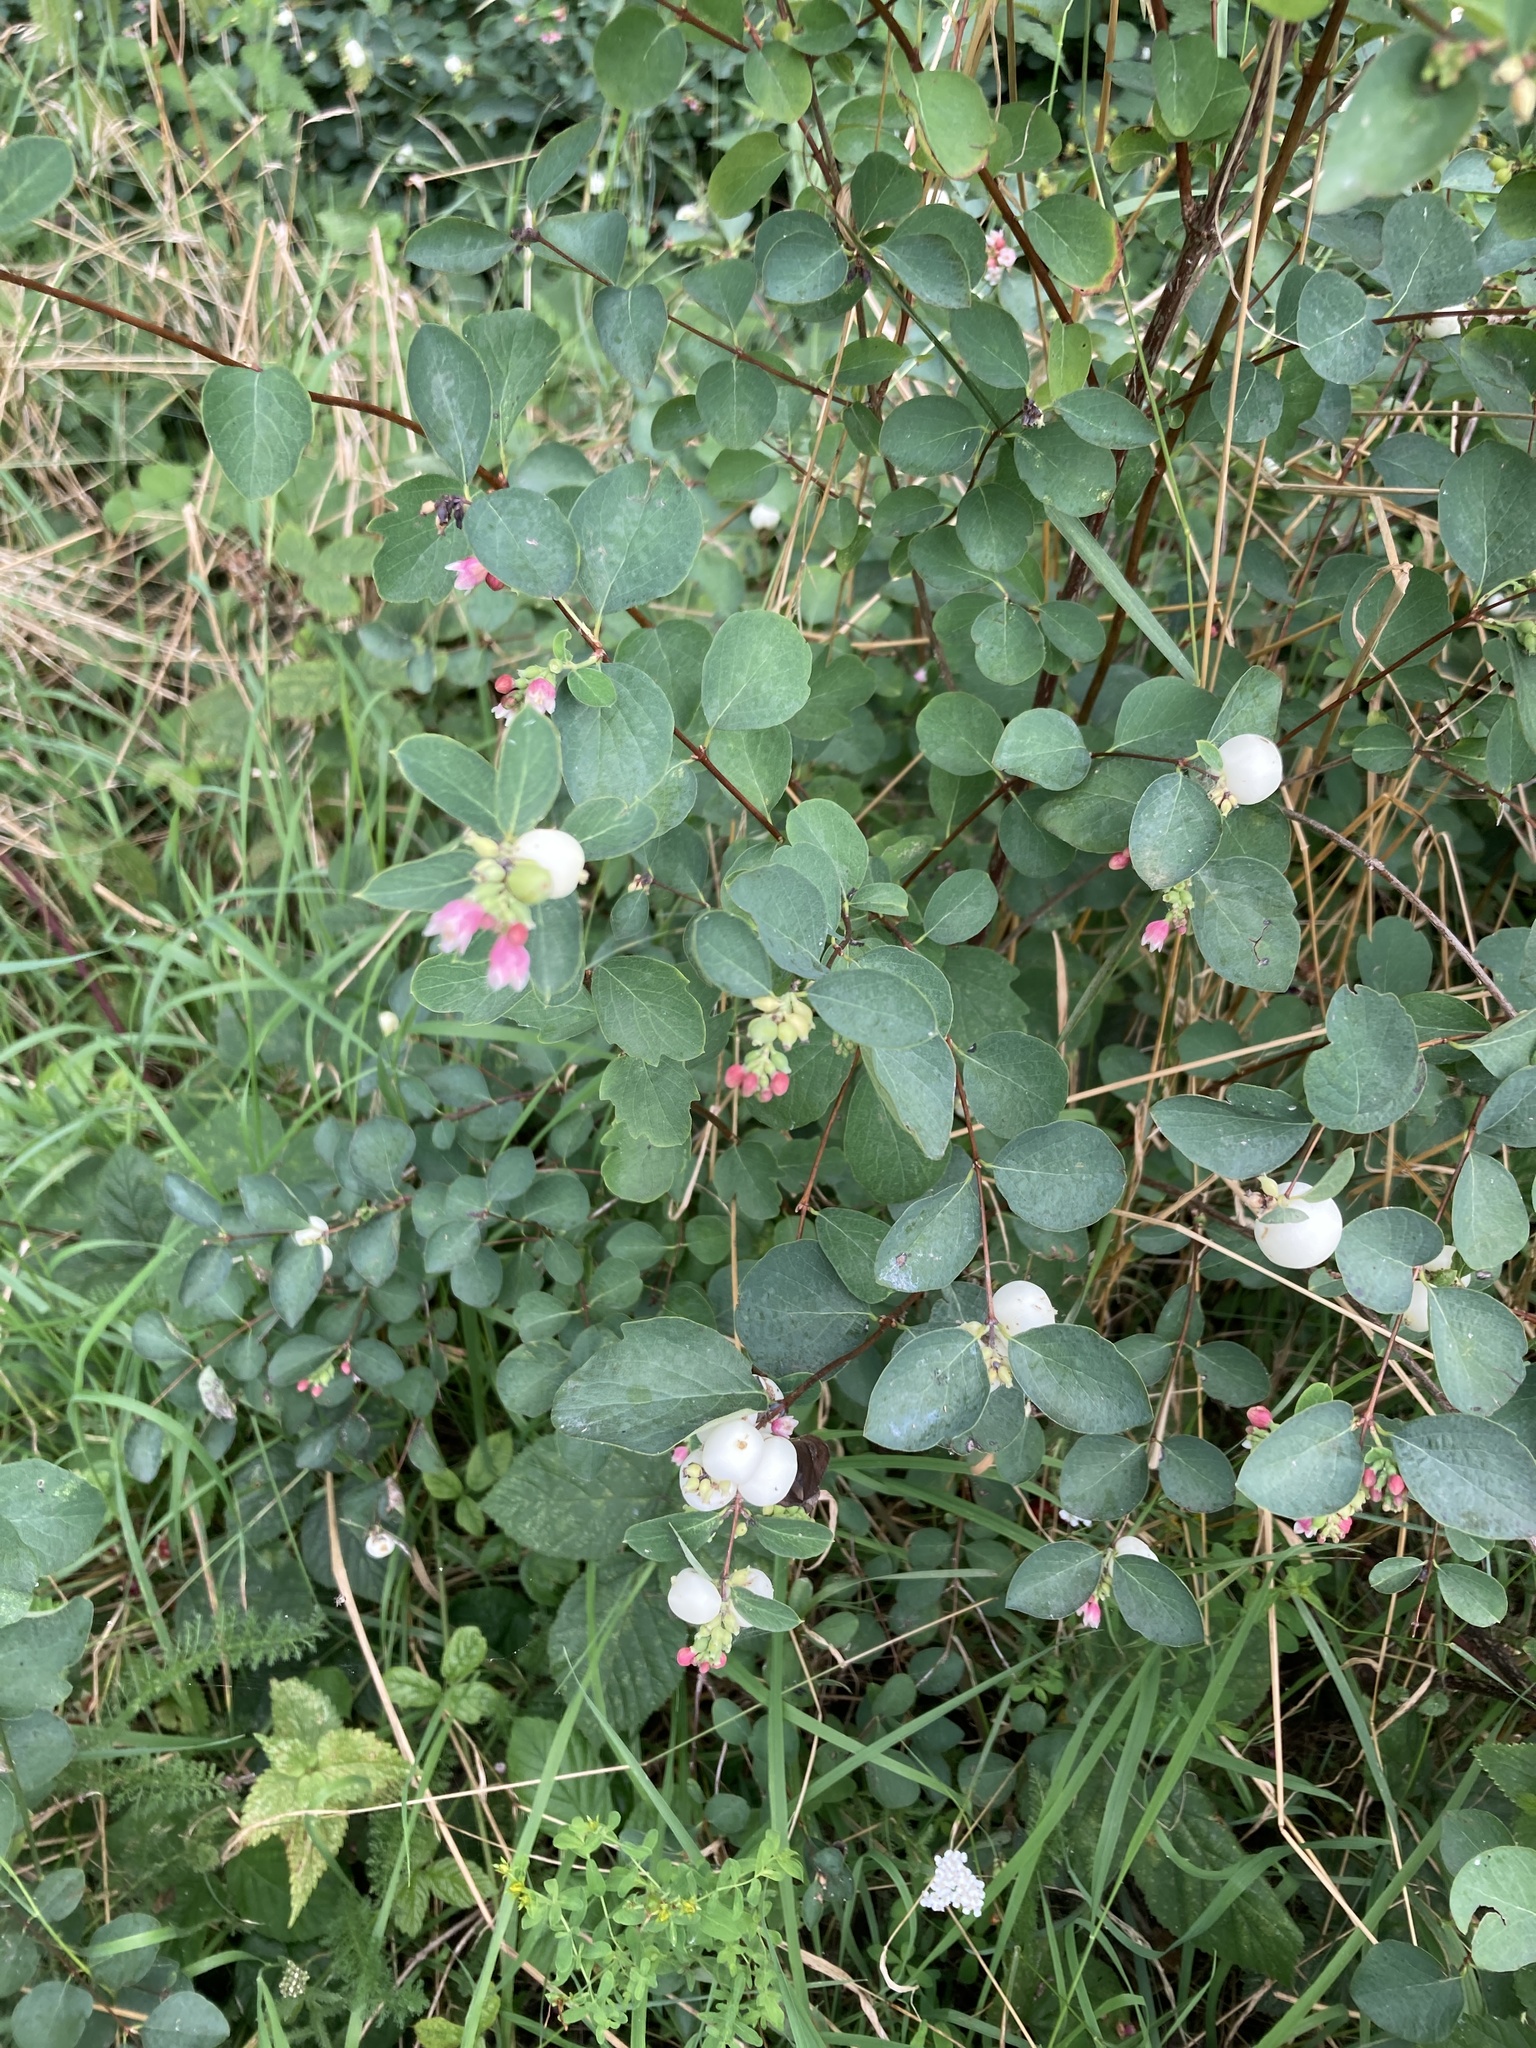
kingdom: Plantae
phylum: Tracheophyta
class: Magnoliopsida
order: Dipsacales
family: Caprifoliaceae
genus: Symphoricarpos
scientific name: Symphoricarpos albus
